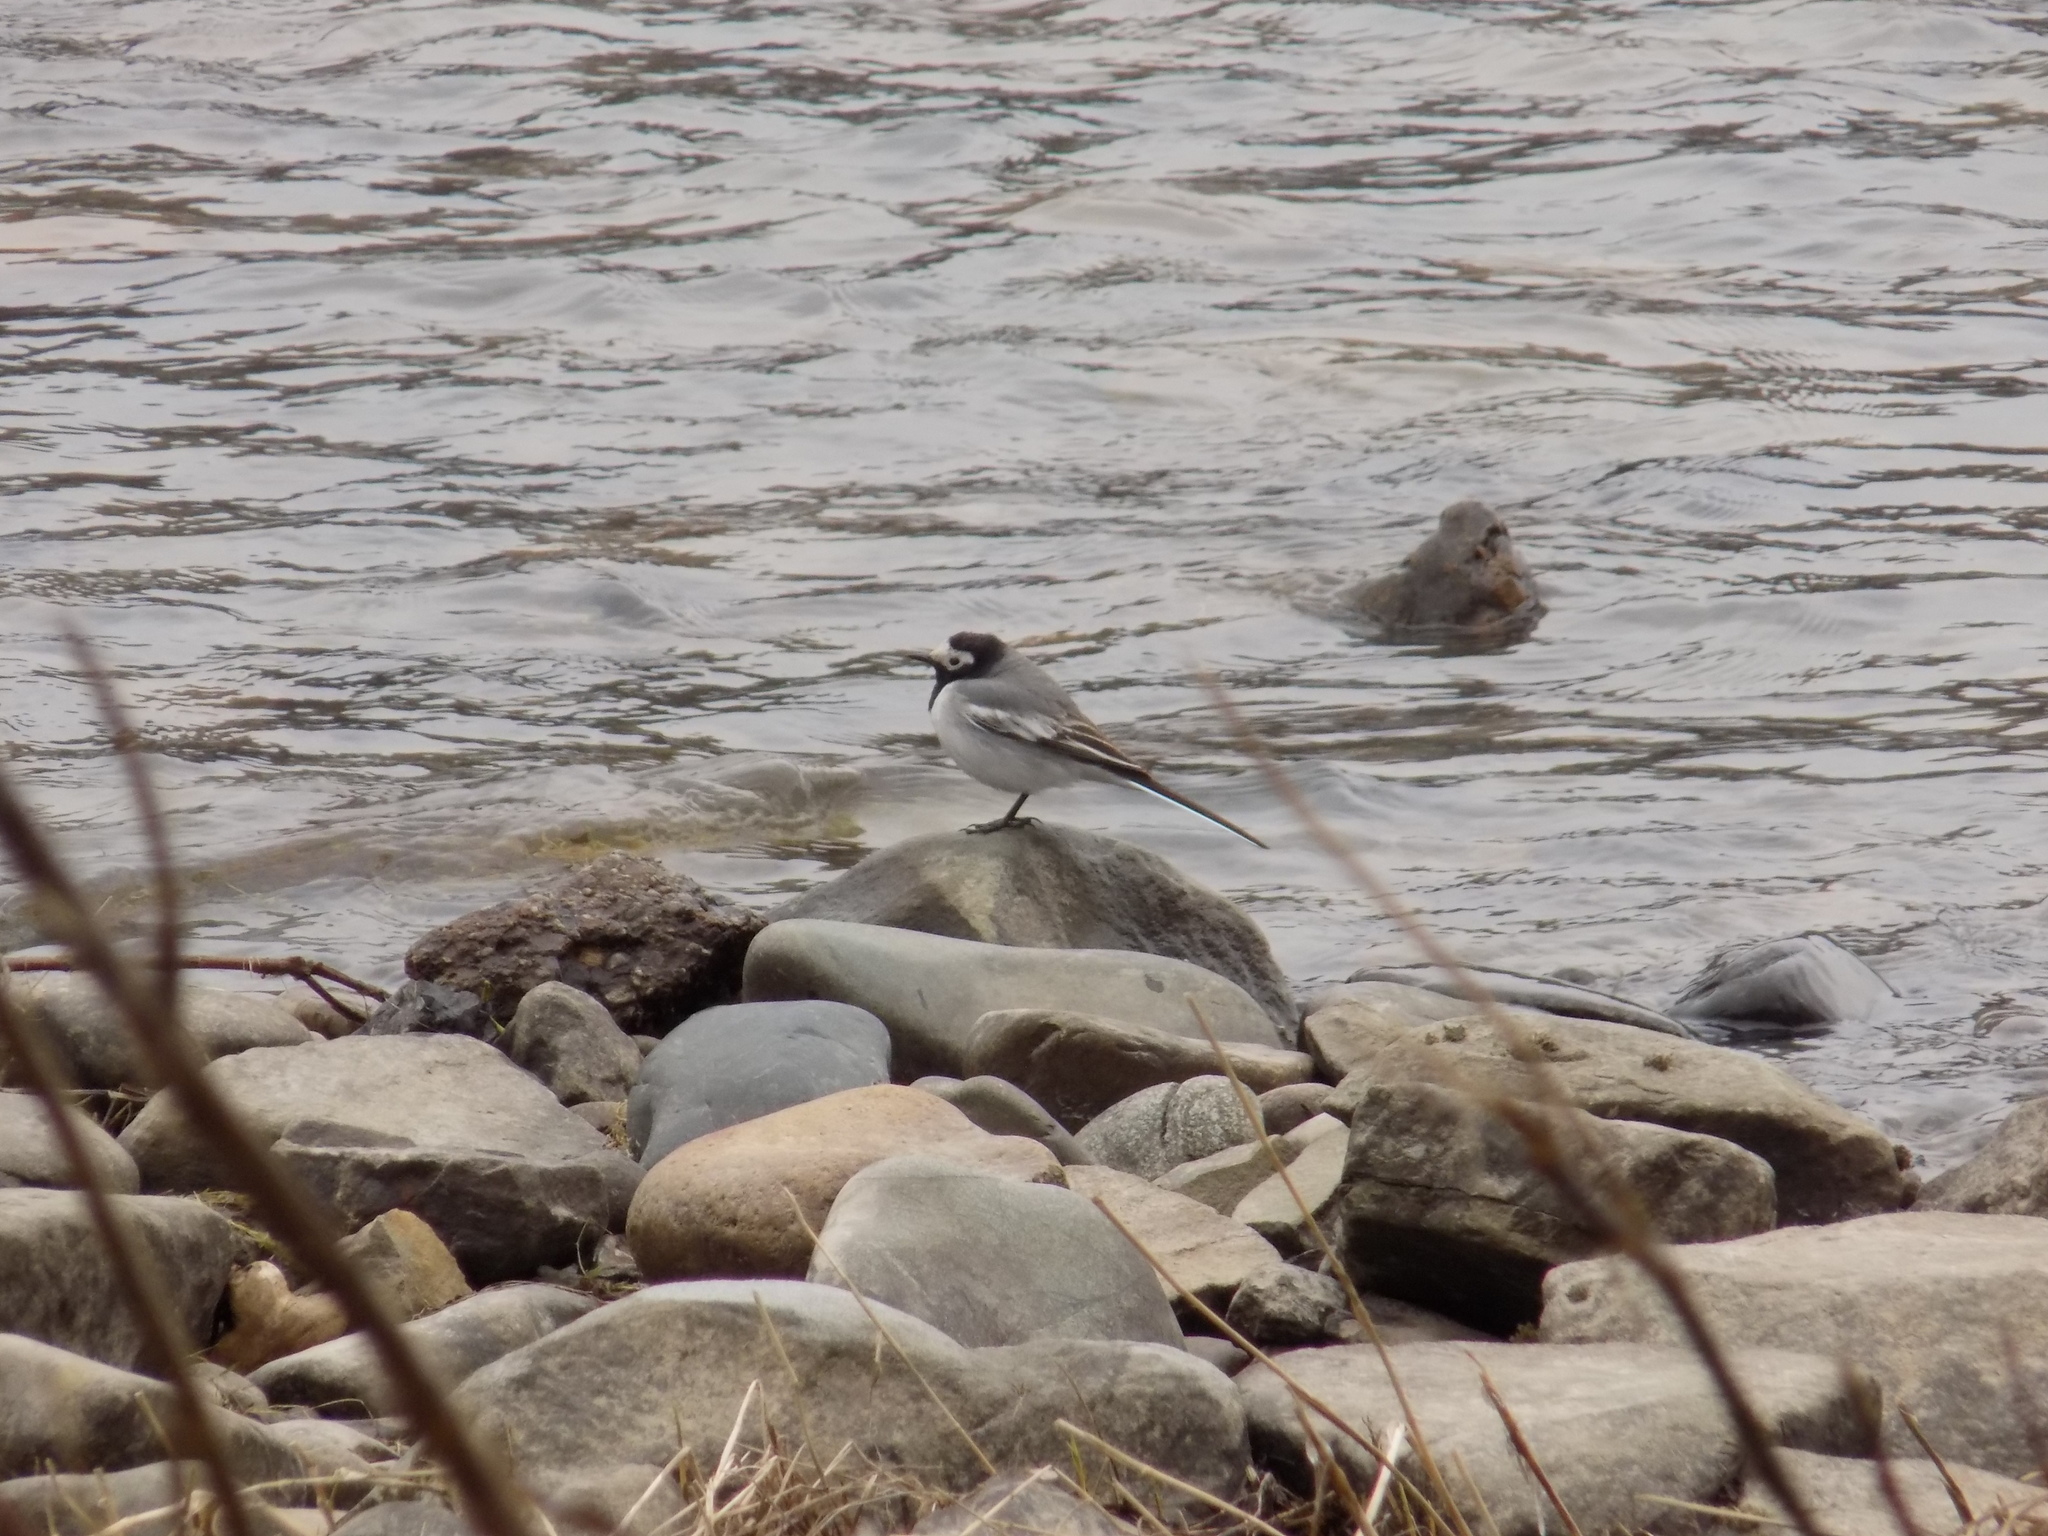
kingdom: Animalia
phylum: Chordata
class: Aves
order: Passeriformes
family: Motacillidae
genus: Motacilla
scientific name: Motacilla alba
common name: White wagtail
